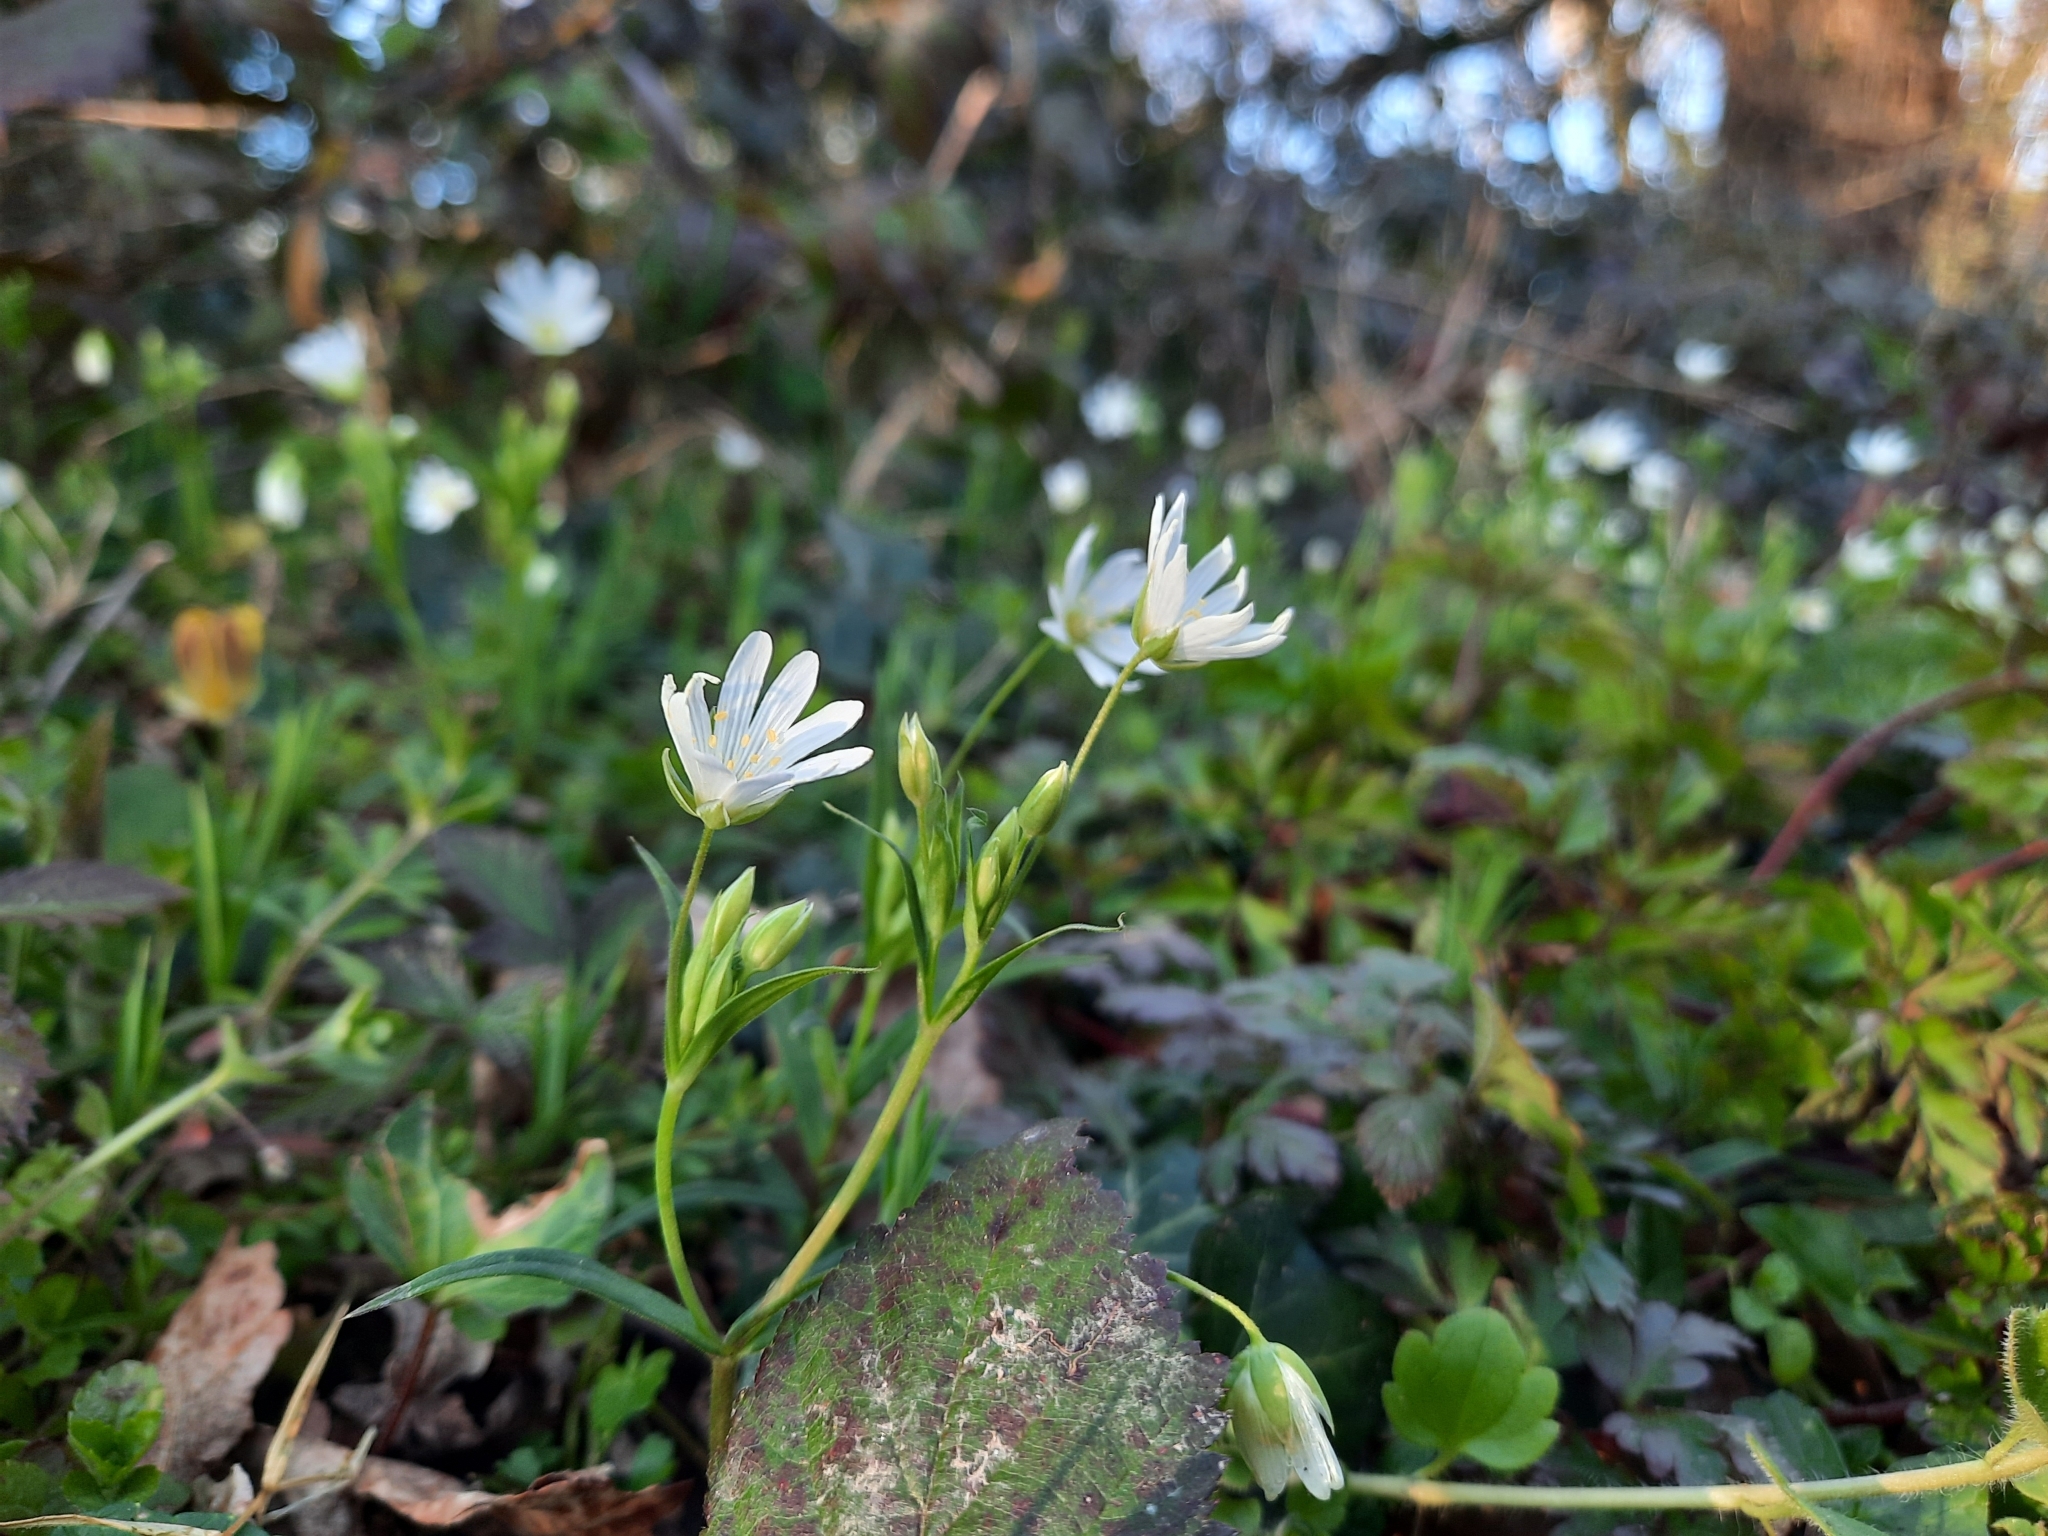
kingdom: Plantae
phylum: Tracheophyta
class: Magnoliopsida
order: Caryophyllales
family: Caryophyllaceae
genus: Rabelera
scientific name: Rabelera holostea
